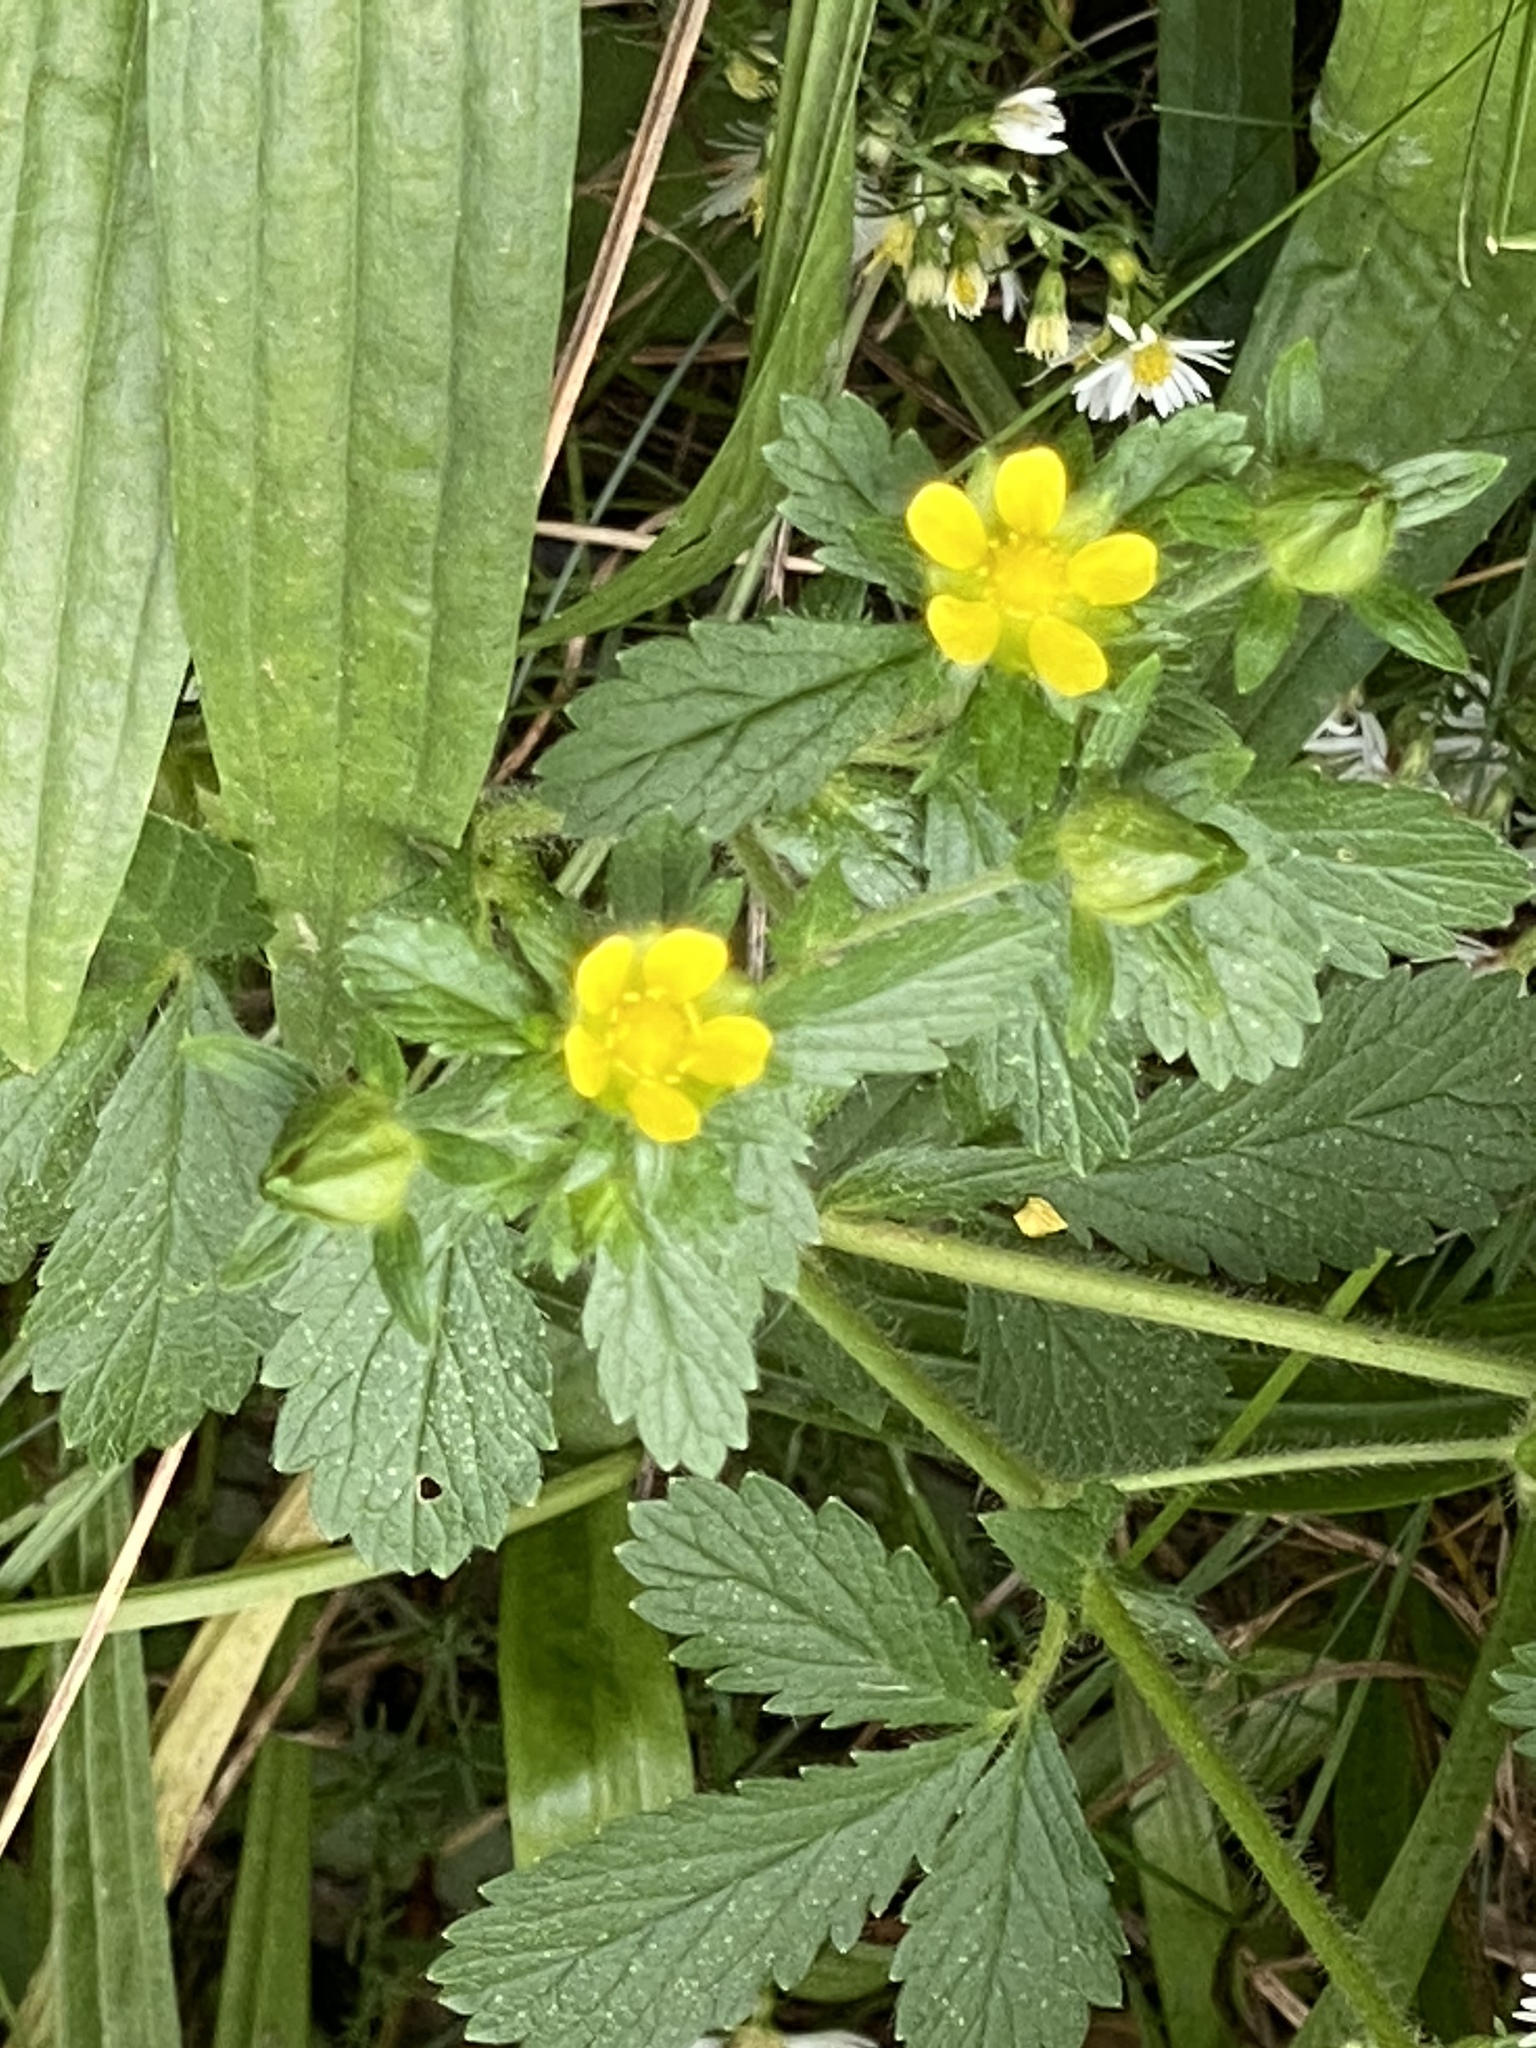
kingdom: Plantae
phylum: Tracheophyta
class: Magnoliopsida
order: Rosales
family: Rosaceae
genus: Potentilla
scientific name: Potentilla norvegica
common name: Ternate-leaved cinquefoil
